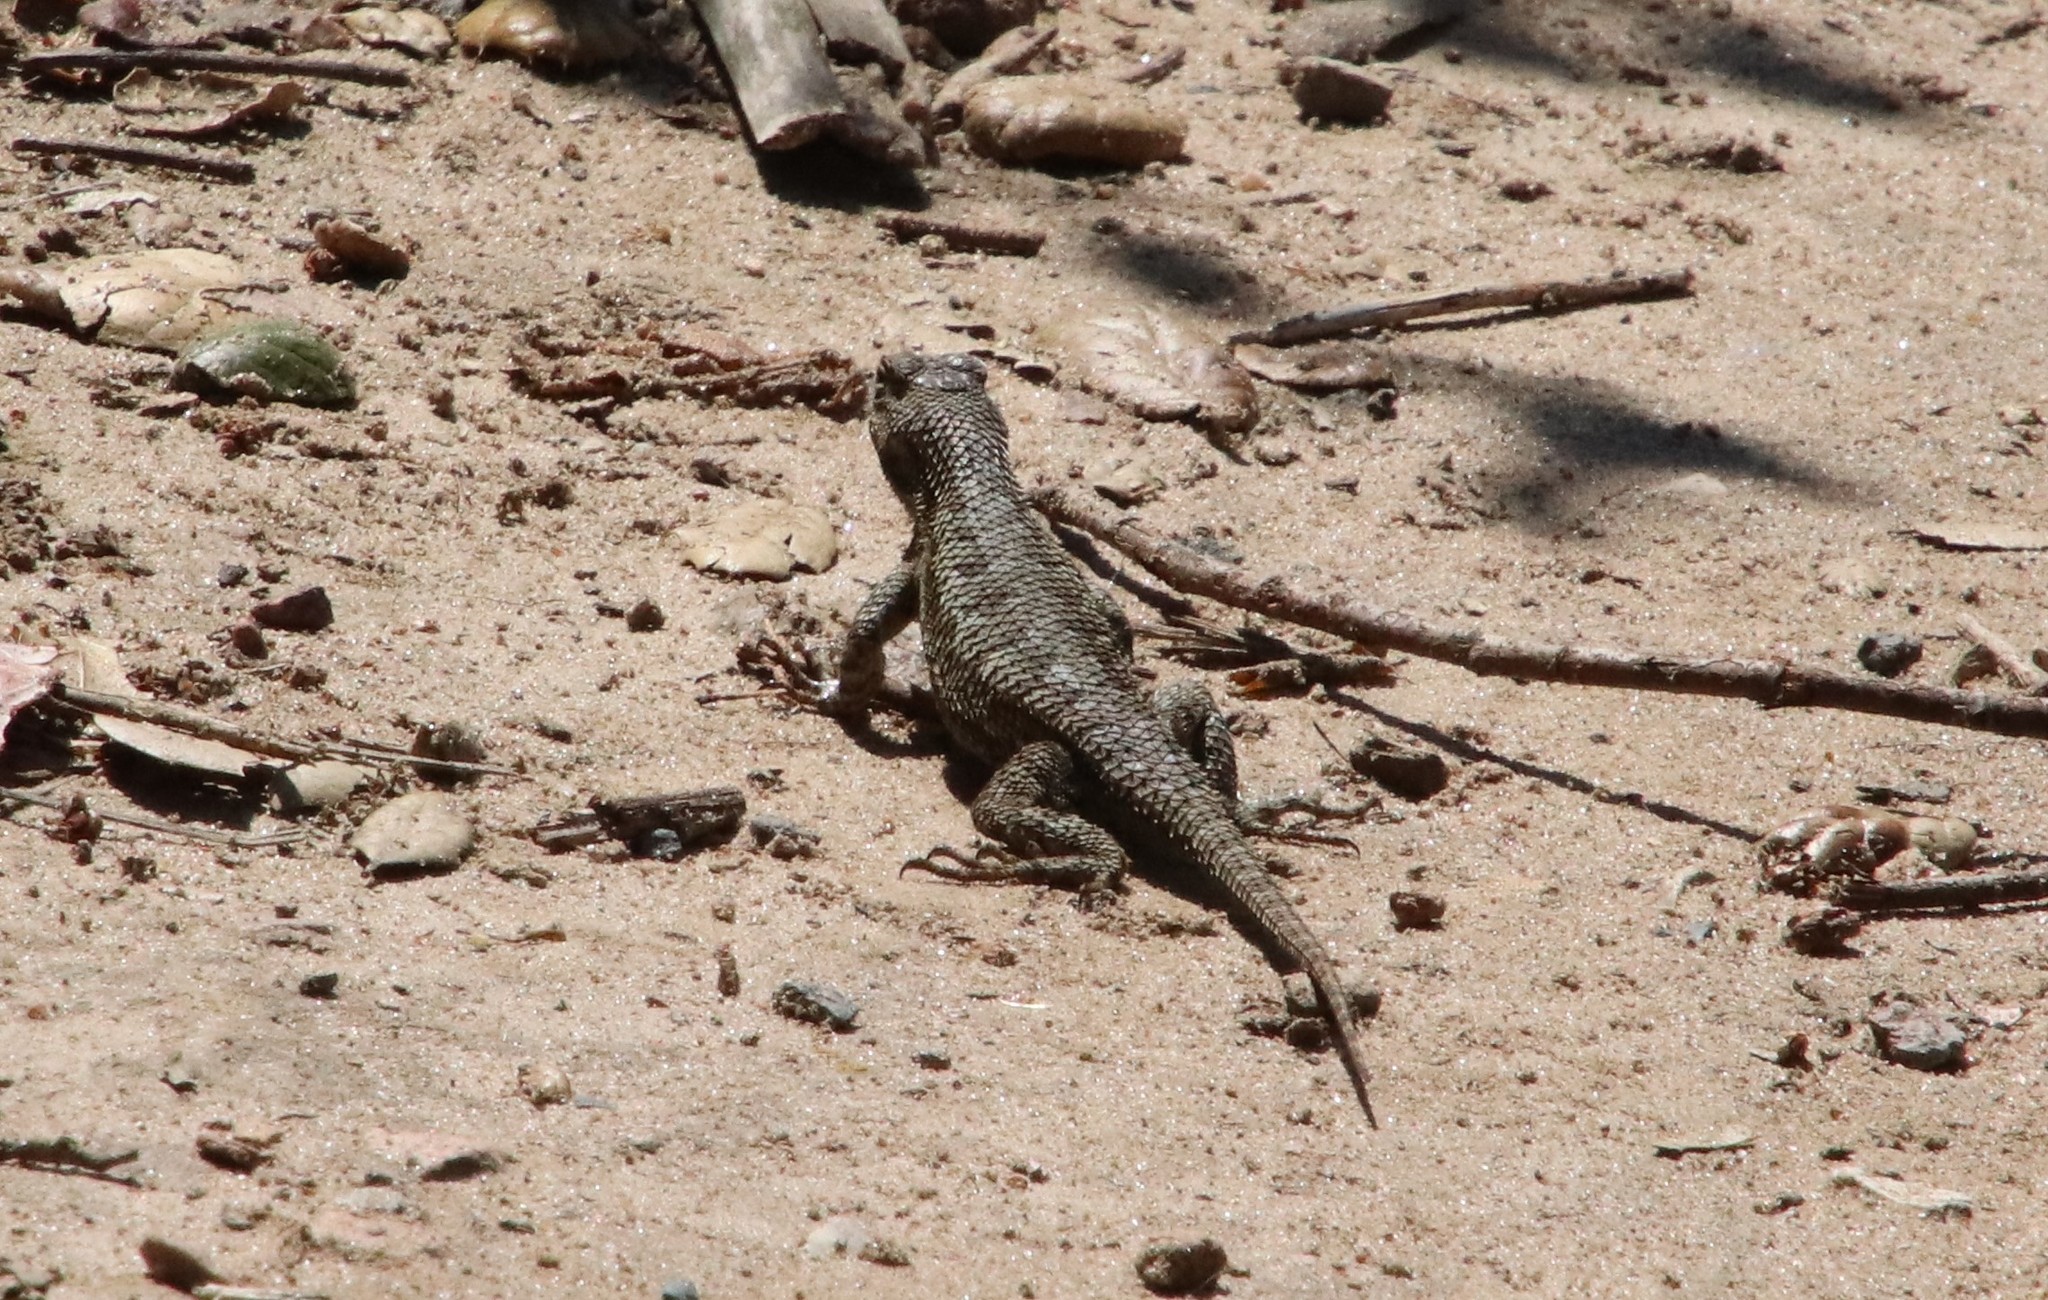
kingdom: Animalia
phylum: Chordata
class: Squamata
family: Phrynosomatidae
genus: Sceloporus
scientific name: Sceloporus occidentalis
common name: Western fence lizard
